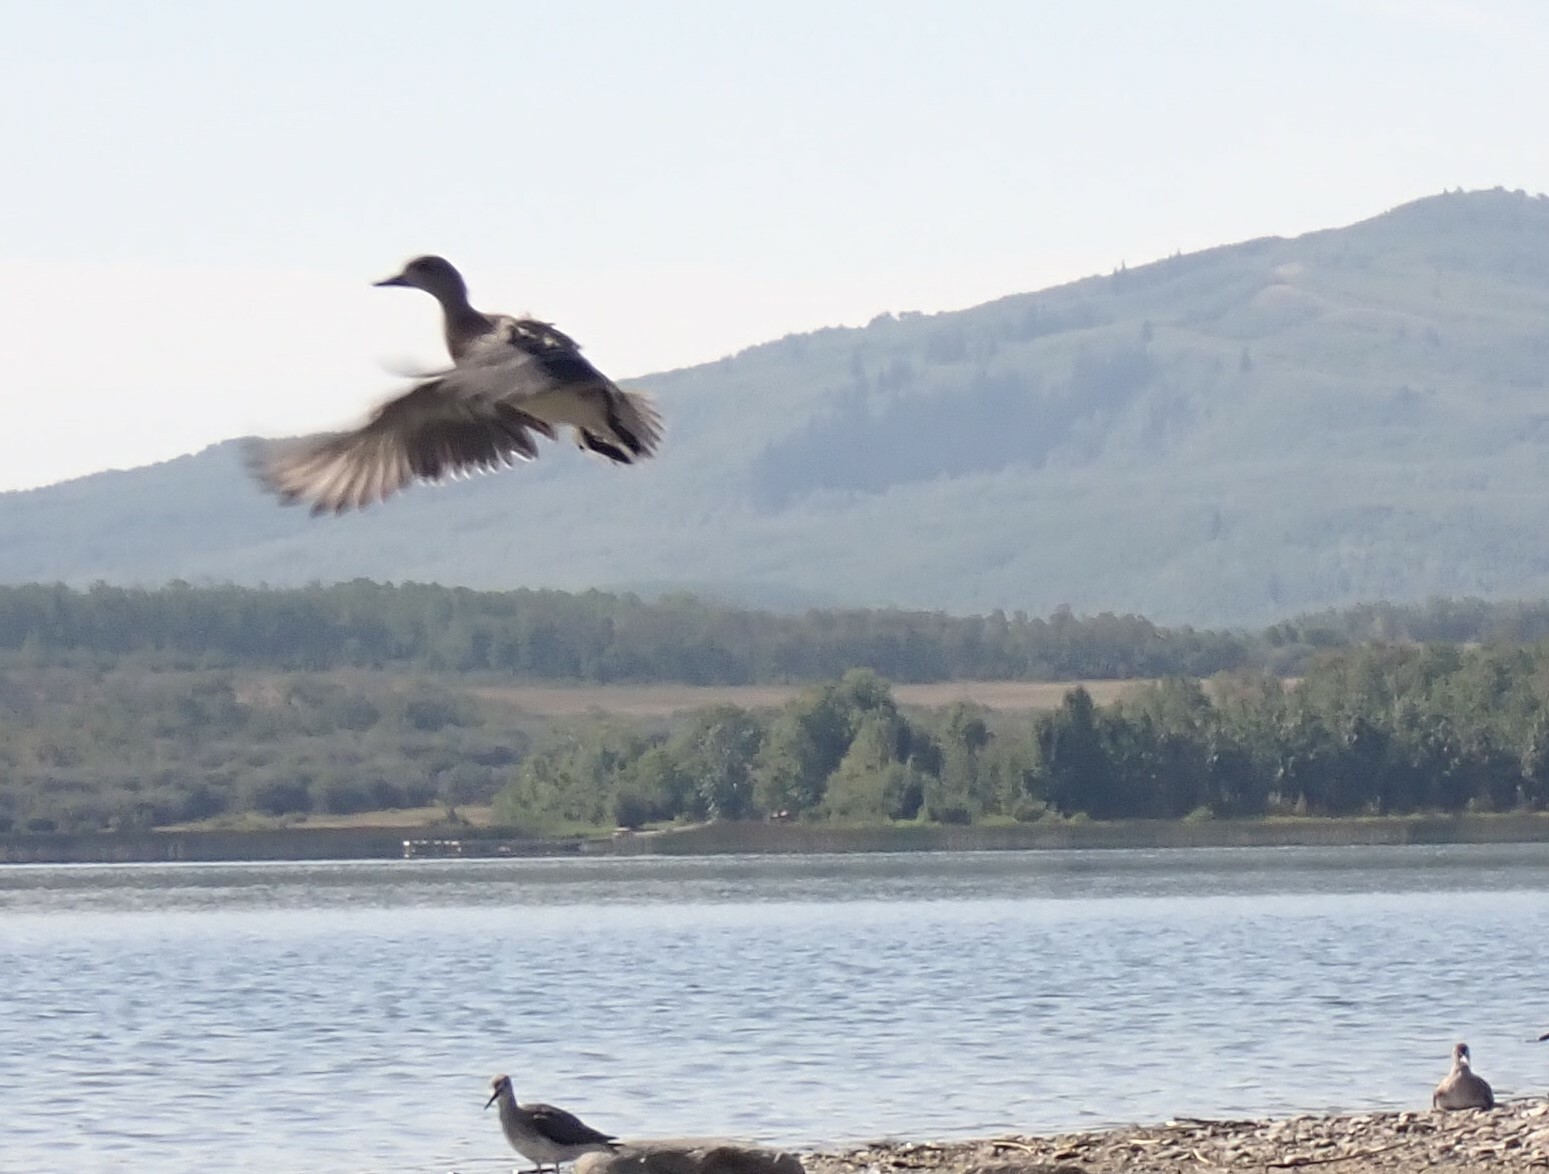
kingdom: Animalia
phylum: Chordata
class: Aves
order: Anseriformes
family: Anatidae
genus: Mareca
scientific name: Mareca americana
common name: American wigeon
